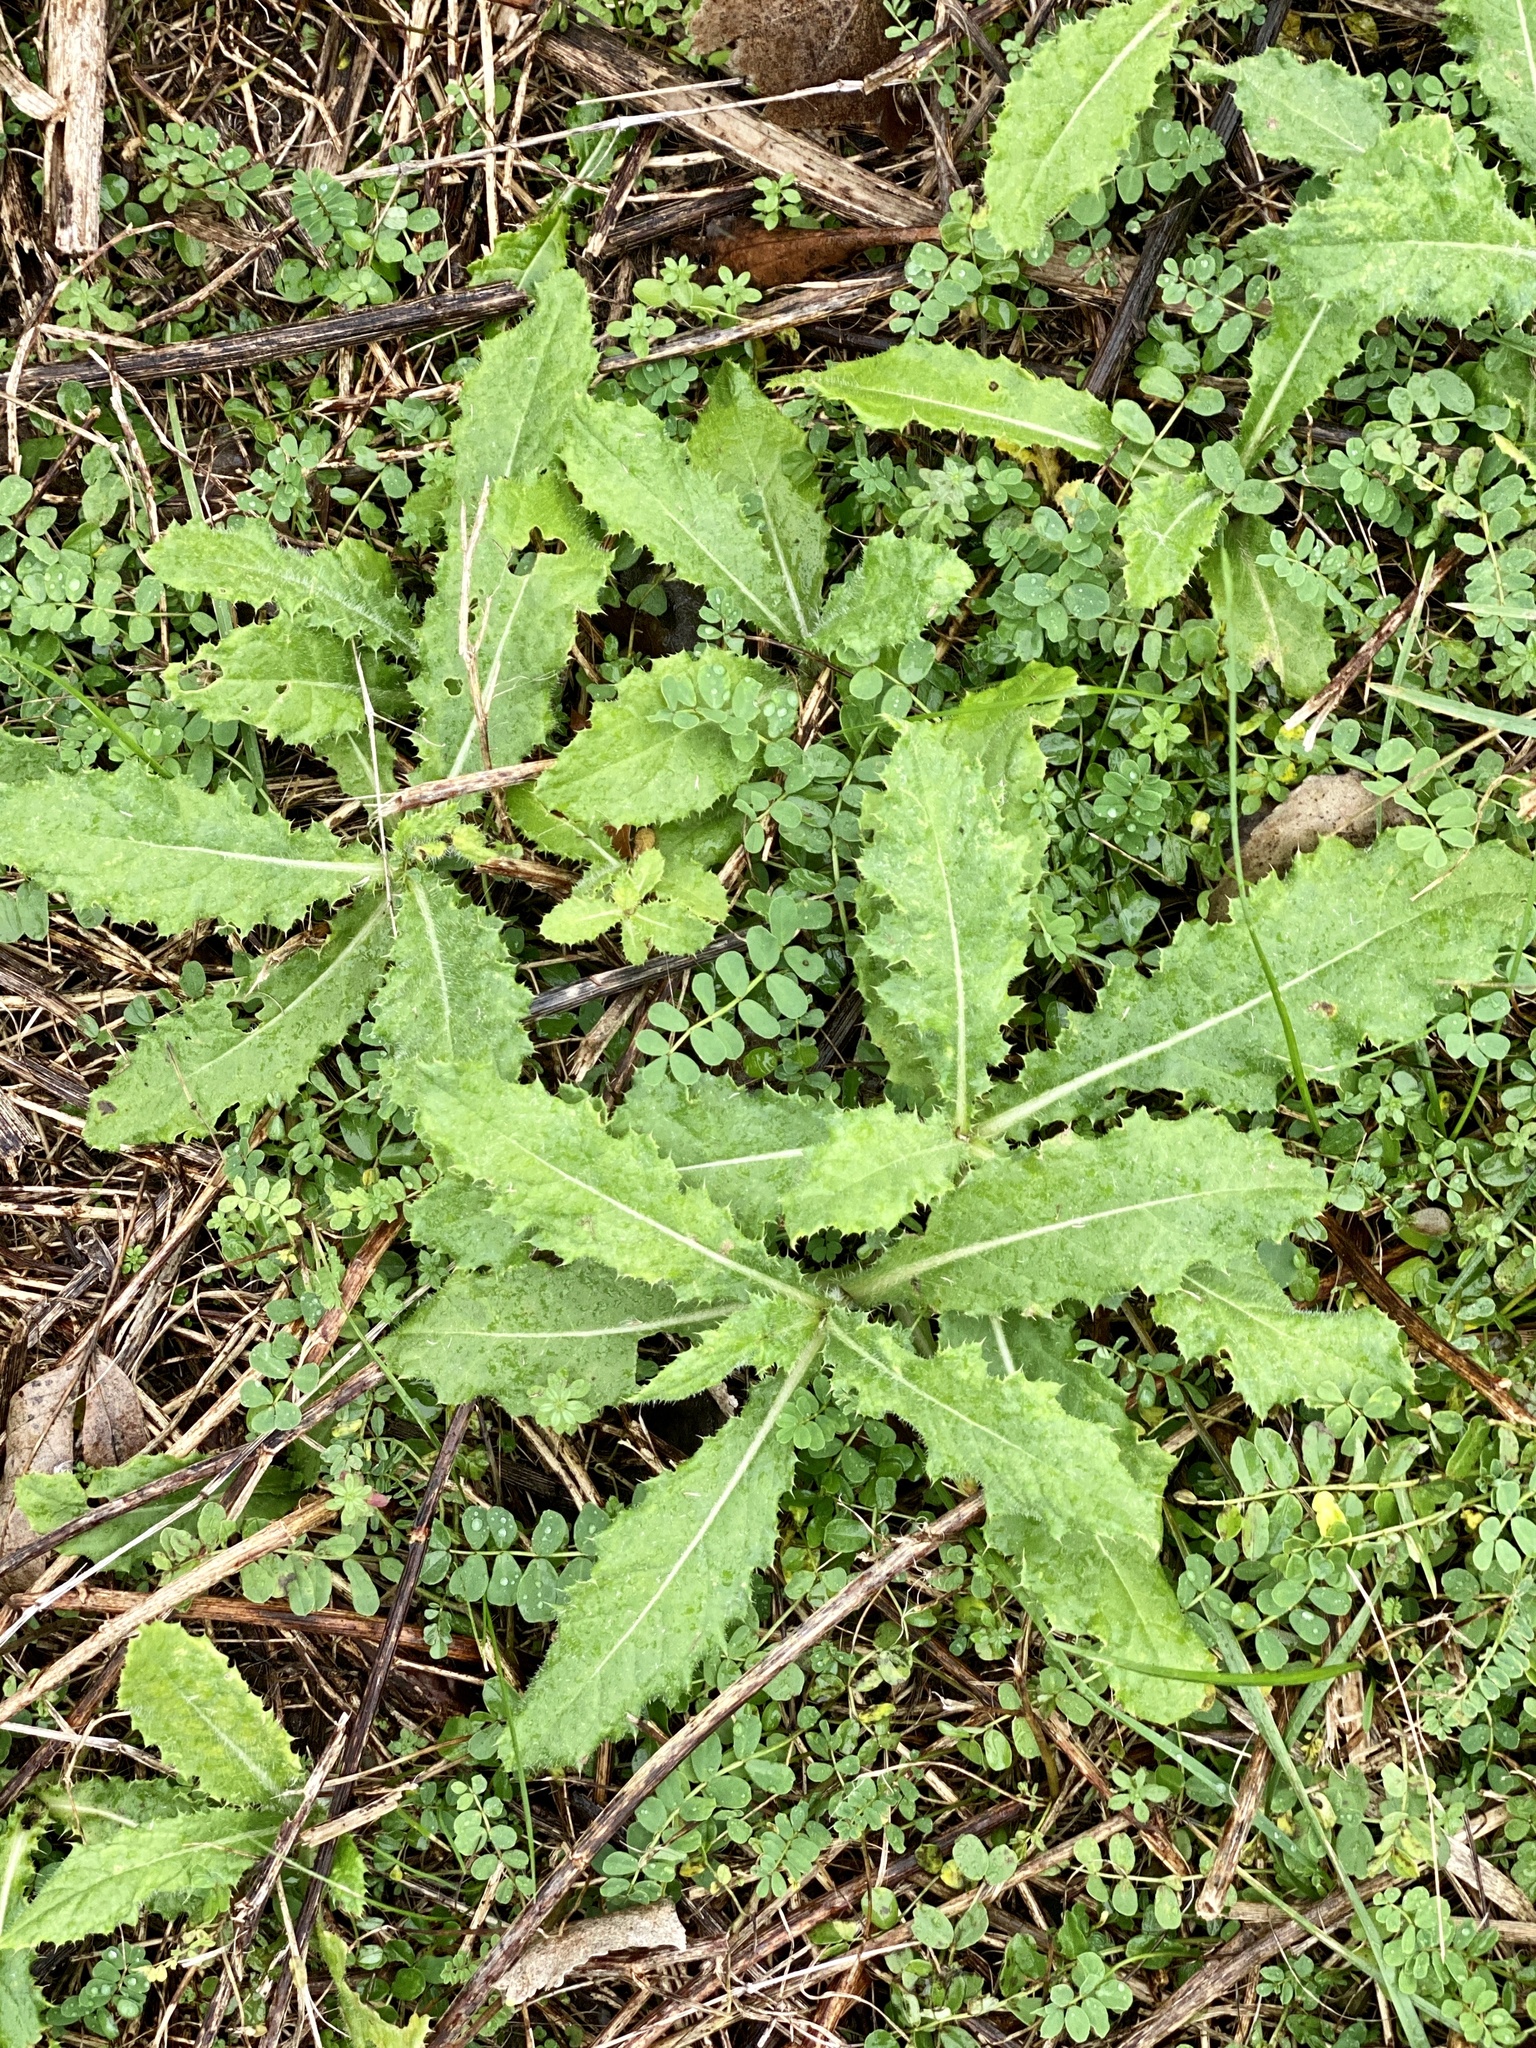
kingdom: Plantae
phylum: Tracheophyta
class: Magnoliopsida
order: Asterales
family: Asteraceae
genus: Cirsium
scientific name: Cirsium arvense
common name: Creeping thistle
